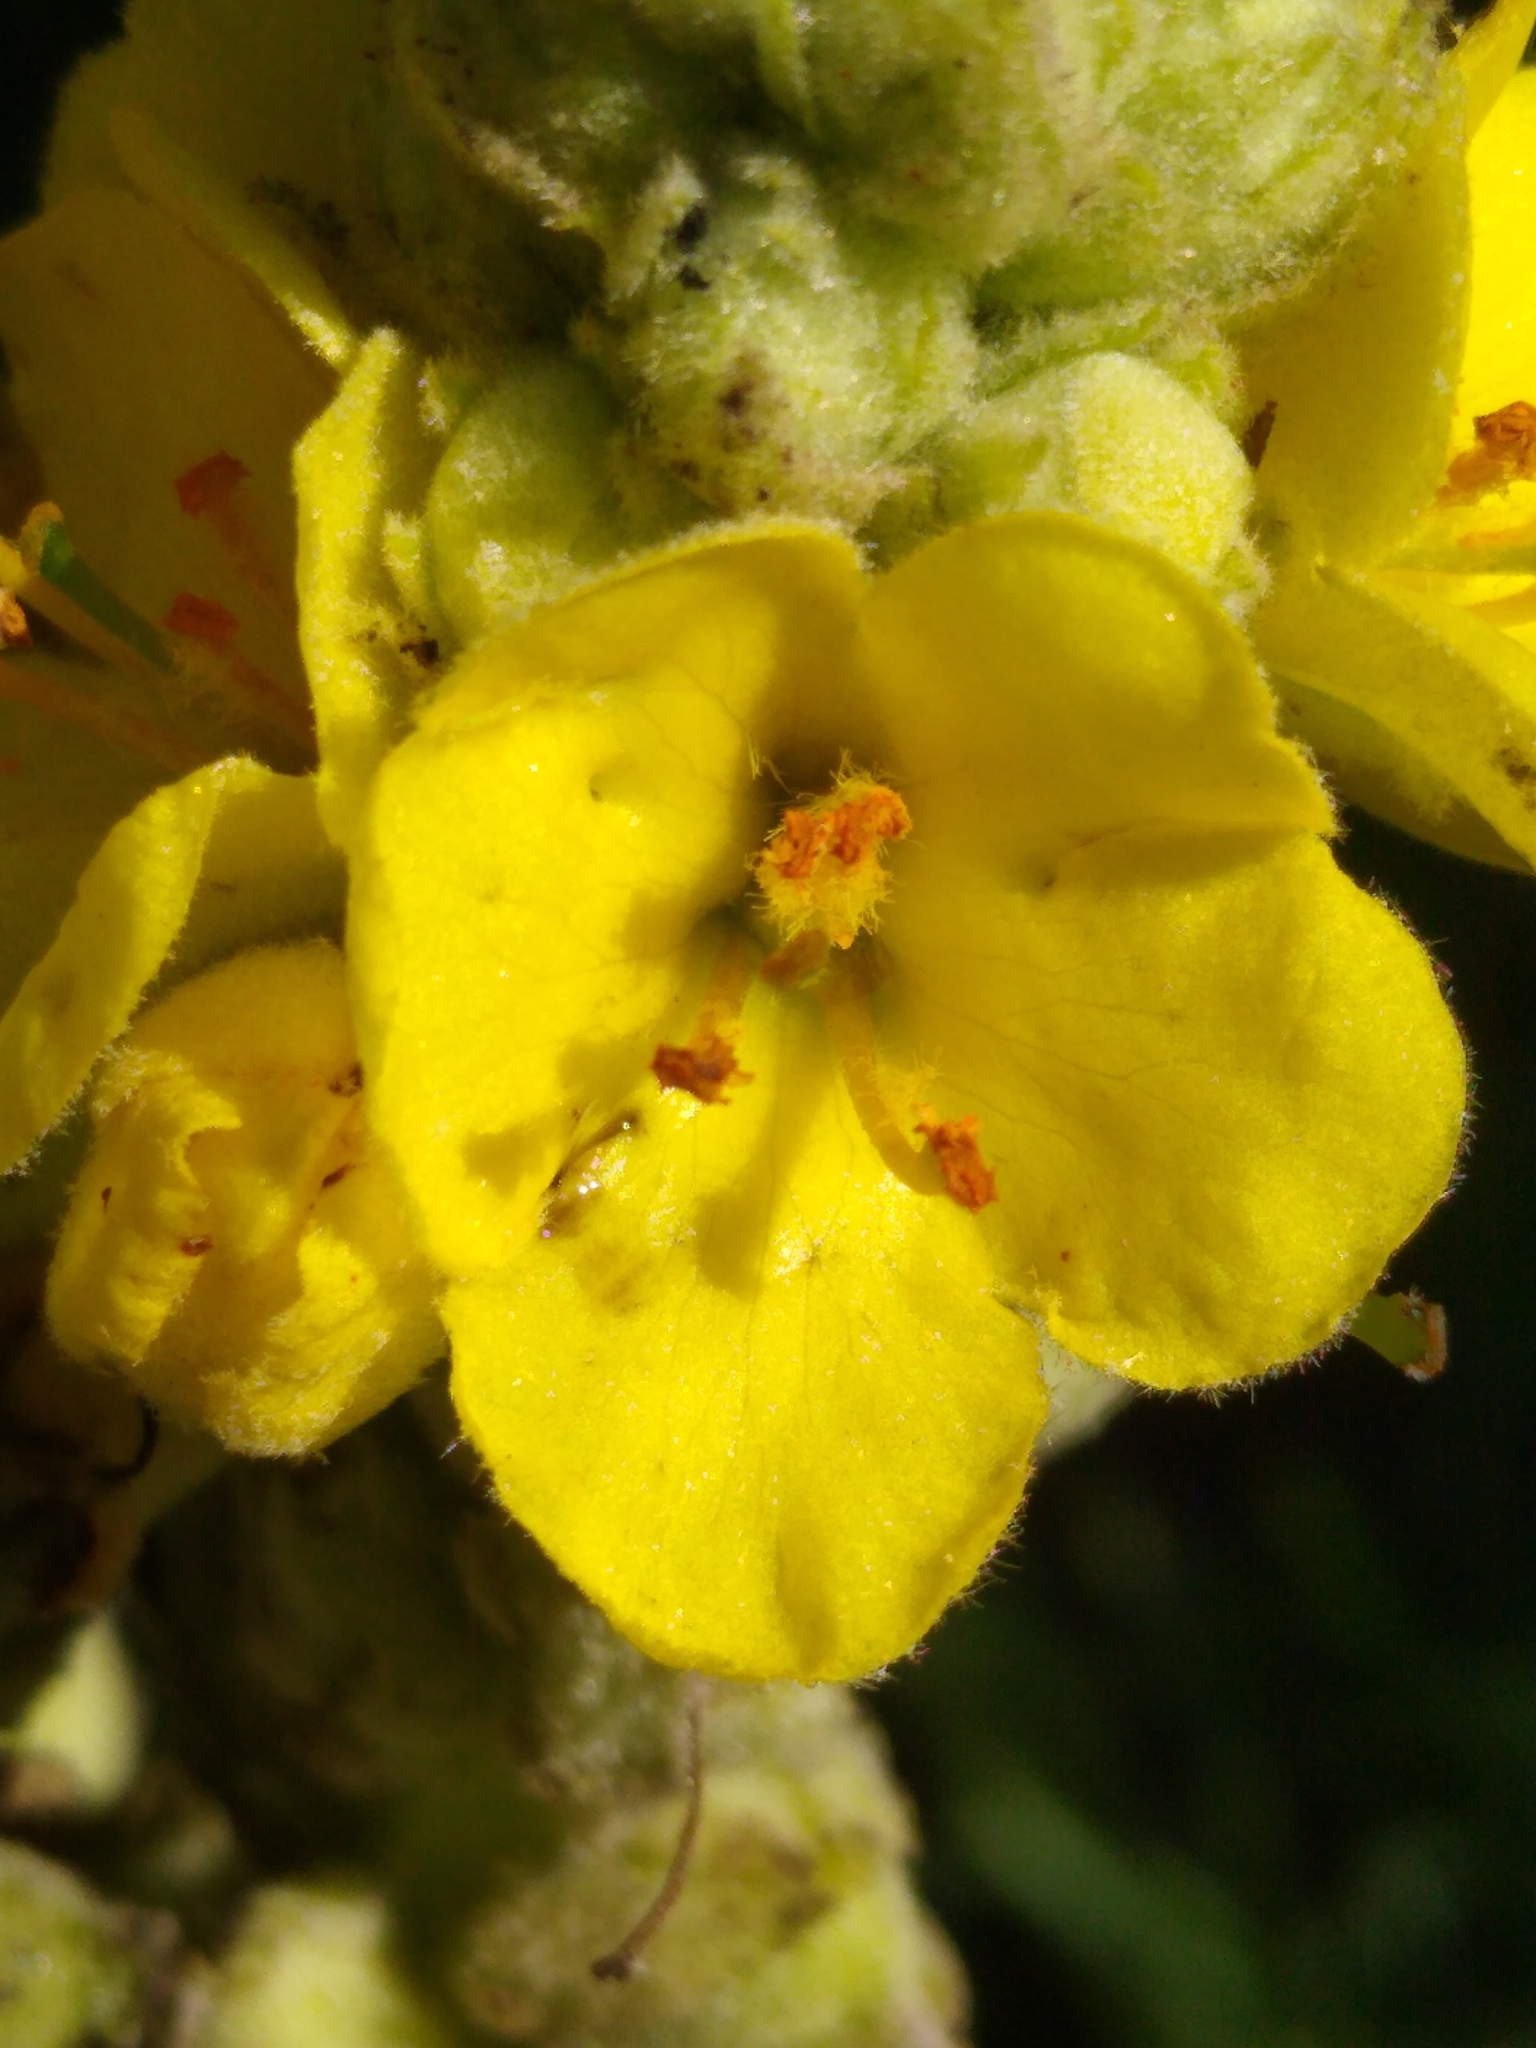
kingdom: Plantae
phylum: Tracheophyta
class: Magnoliopsida
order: Lamiales
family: Scrophulariaceae
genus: Verbascum
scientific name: Verbascum thapsus
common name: Common mullein
